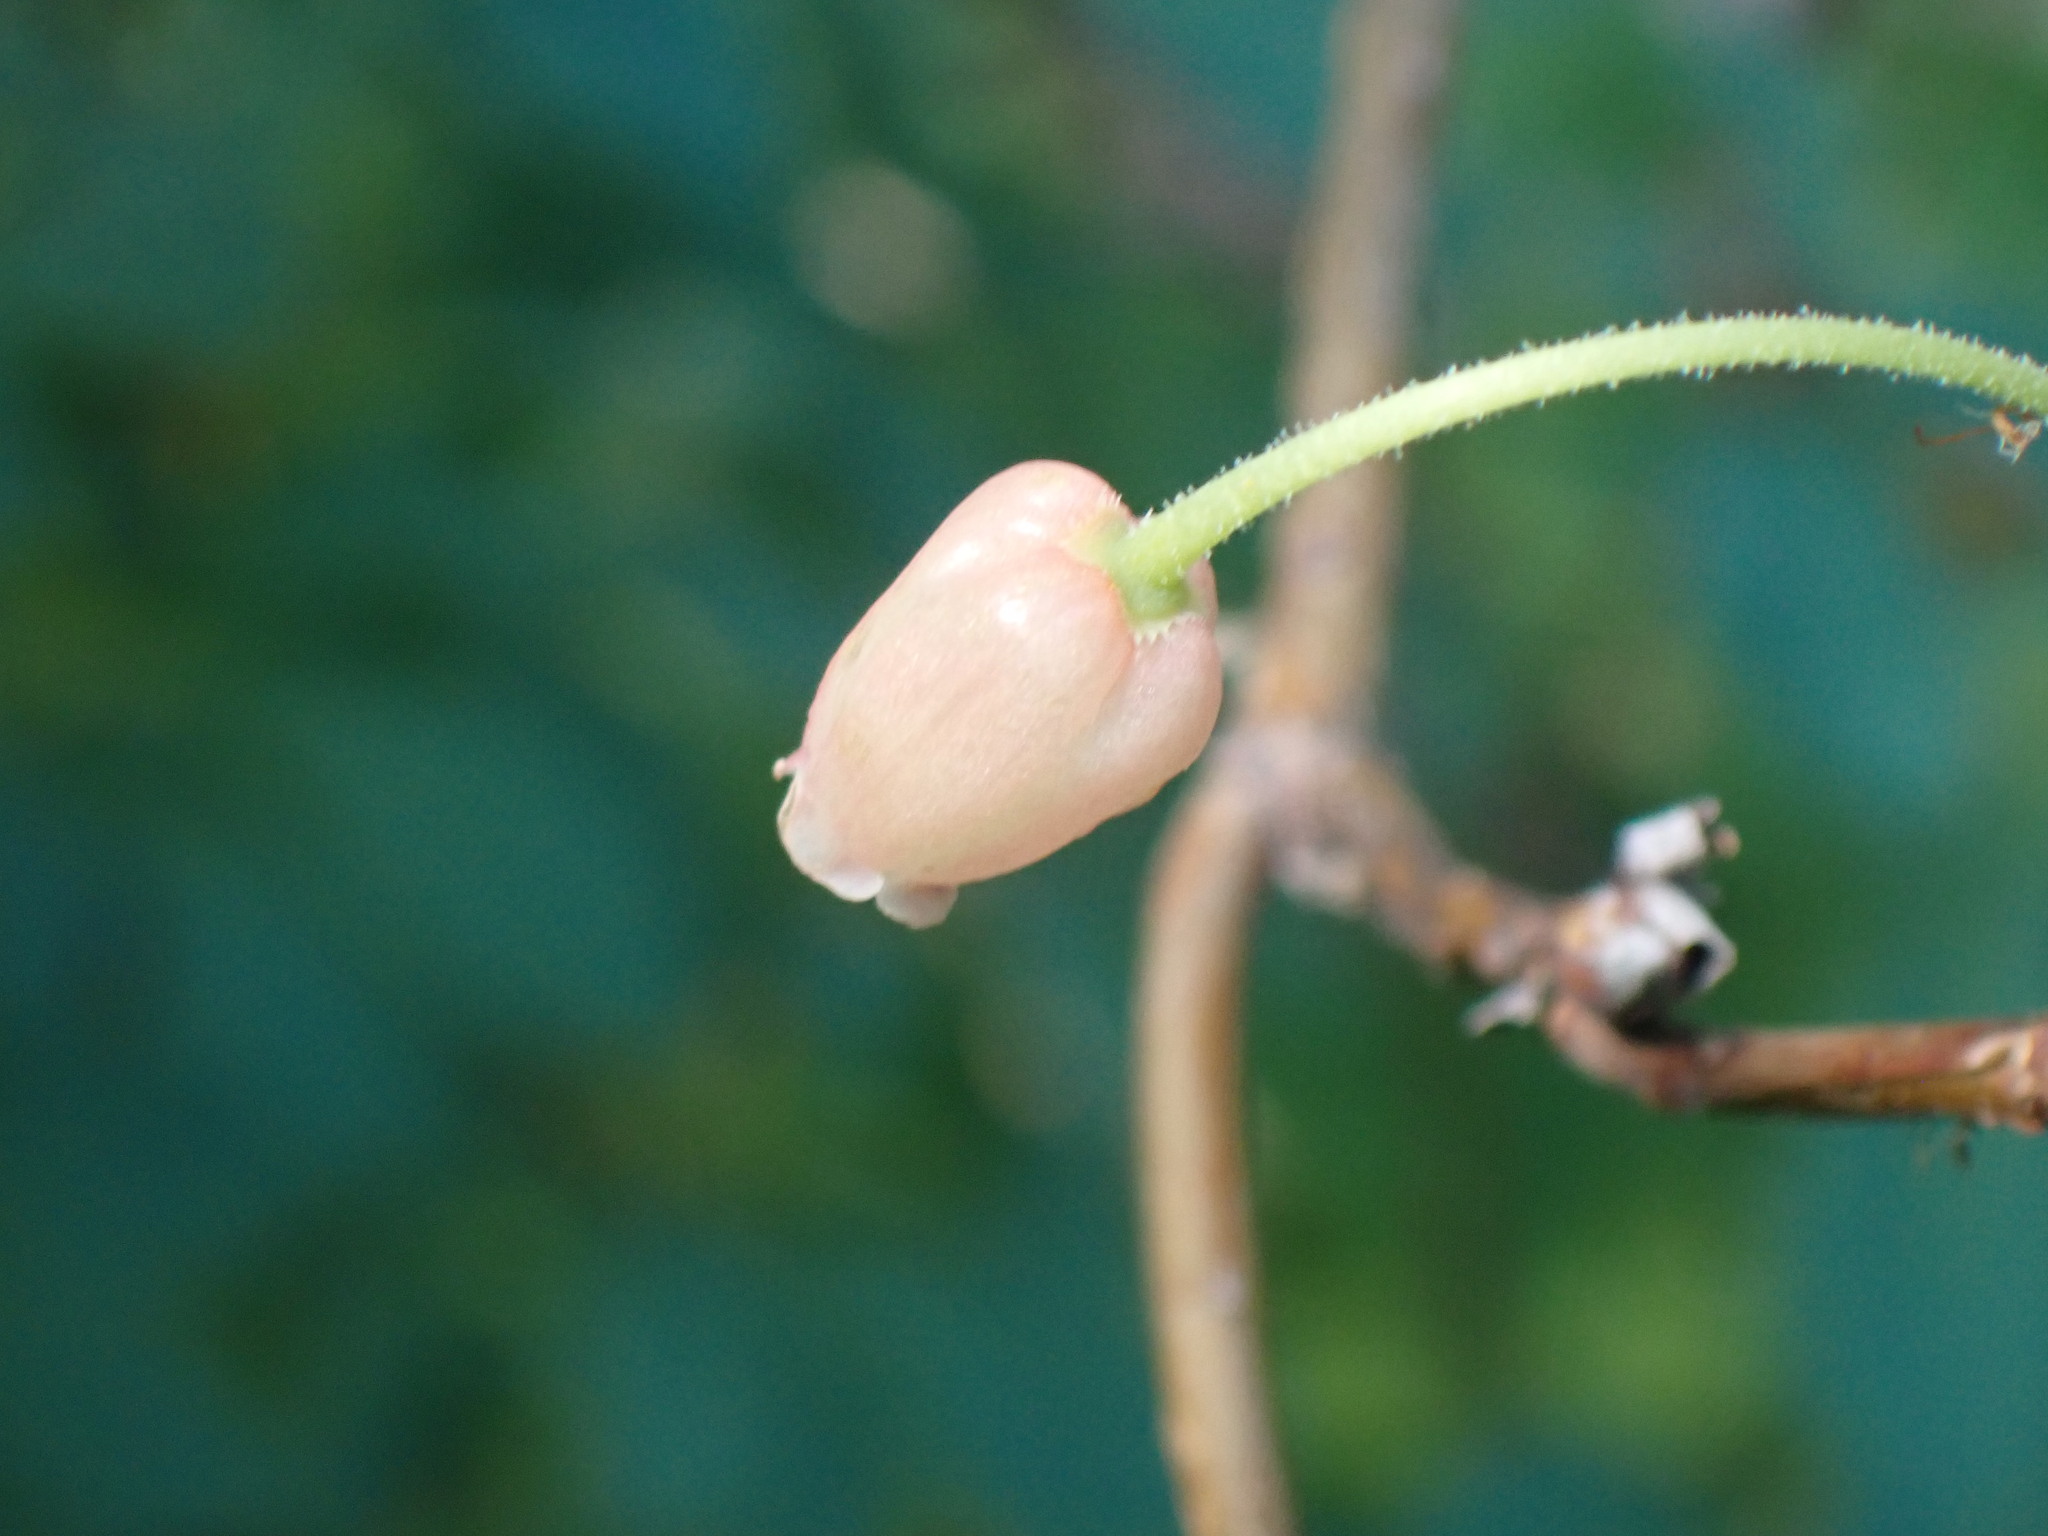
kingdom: Plantae
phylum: Tracheophyta
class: Magnoliopsida
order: Ericales
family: Ericaceae
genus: Rhododendron
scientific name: Rhododendron menziesii
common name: Pacific menziesia
